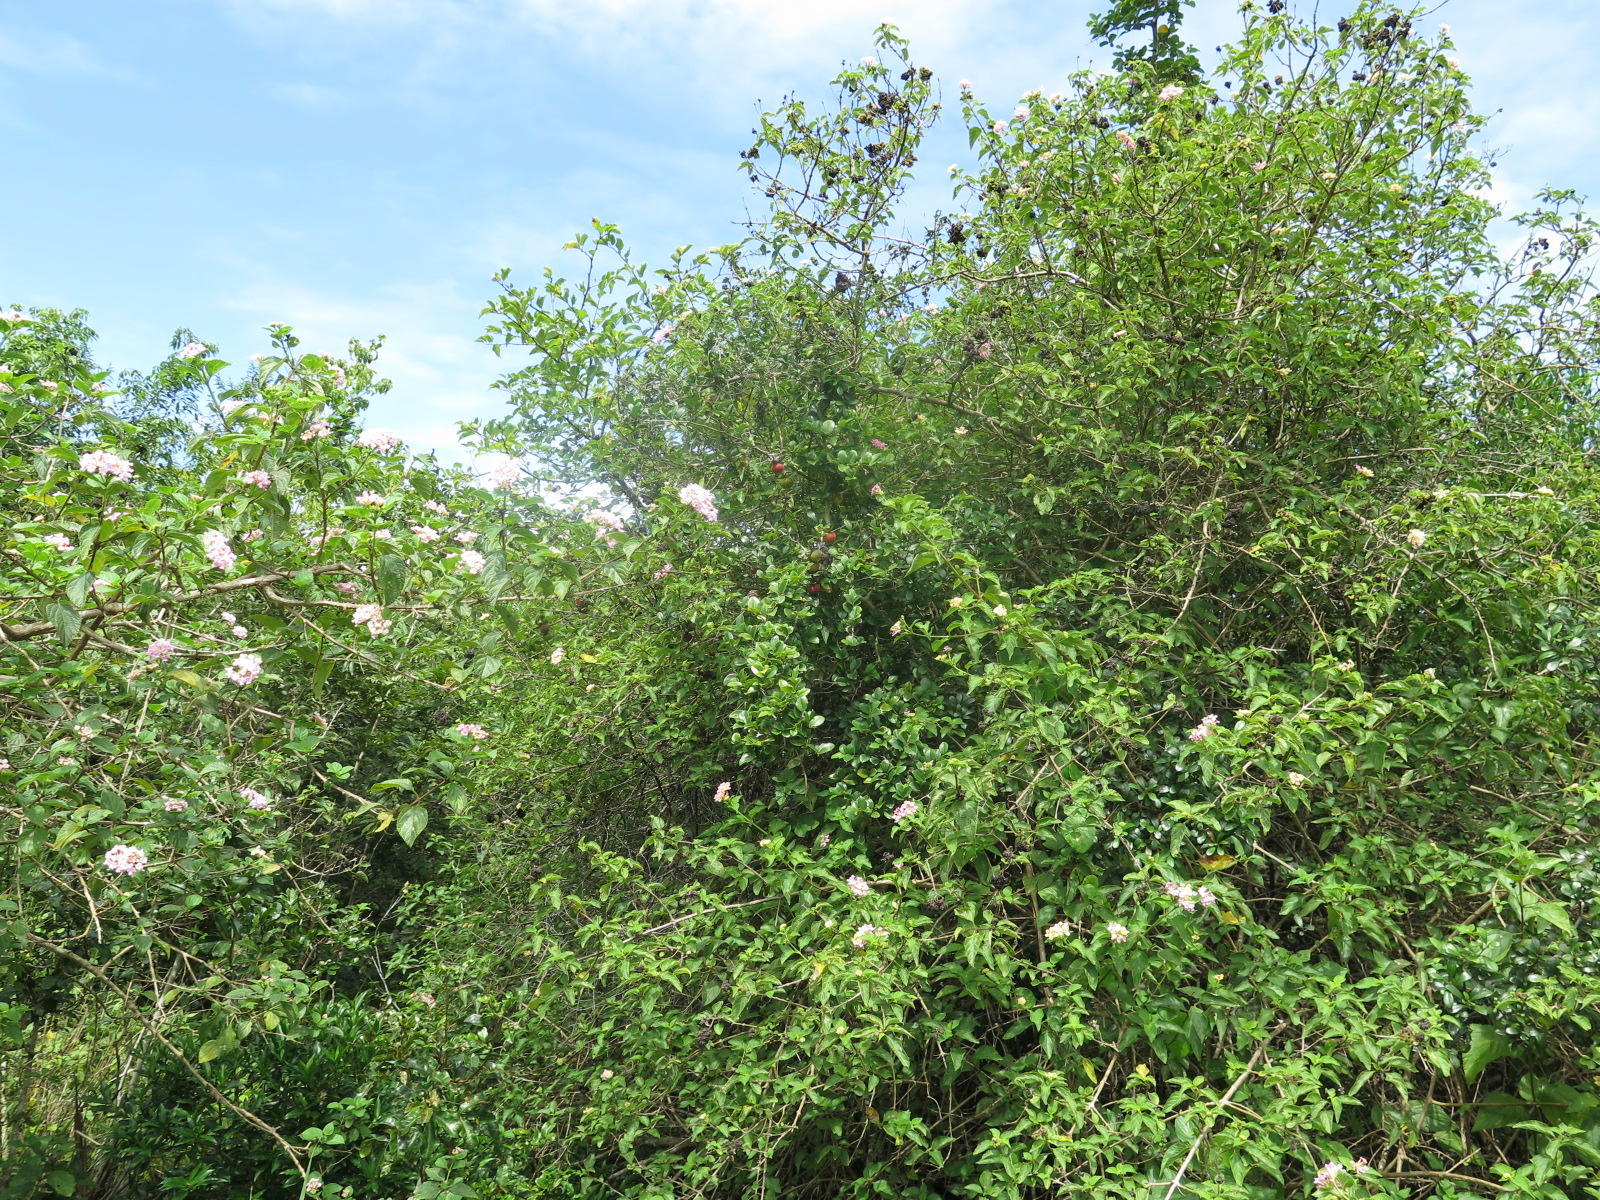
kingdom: Plantae
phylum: Tracheophyta
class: Magnoliopsida
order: Lamiales
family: Verbenaceae
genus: Lantana
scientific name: Lantana camara
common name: Lantana
